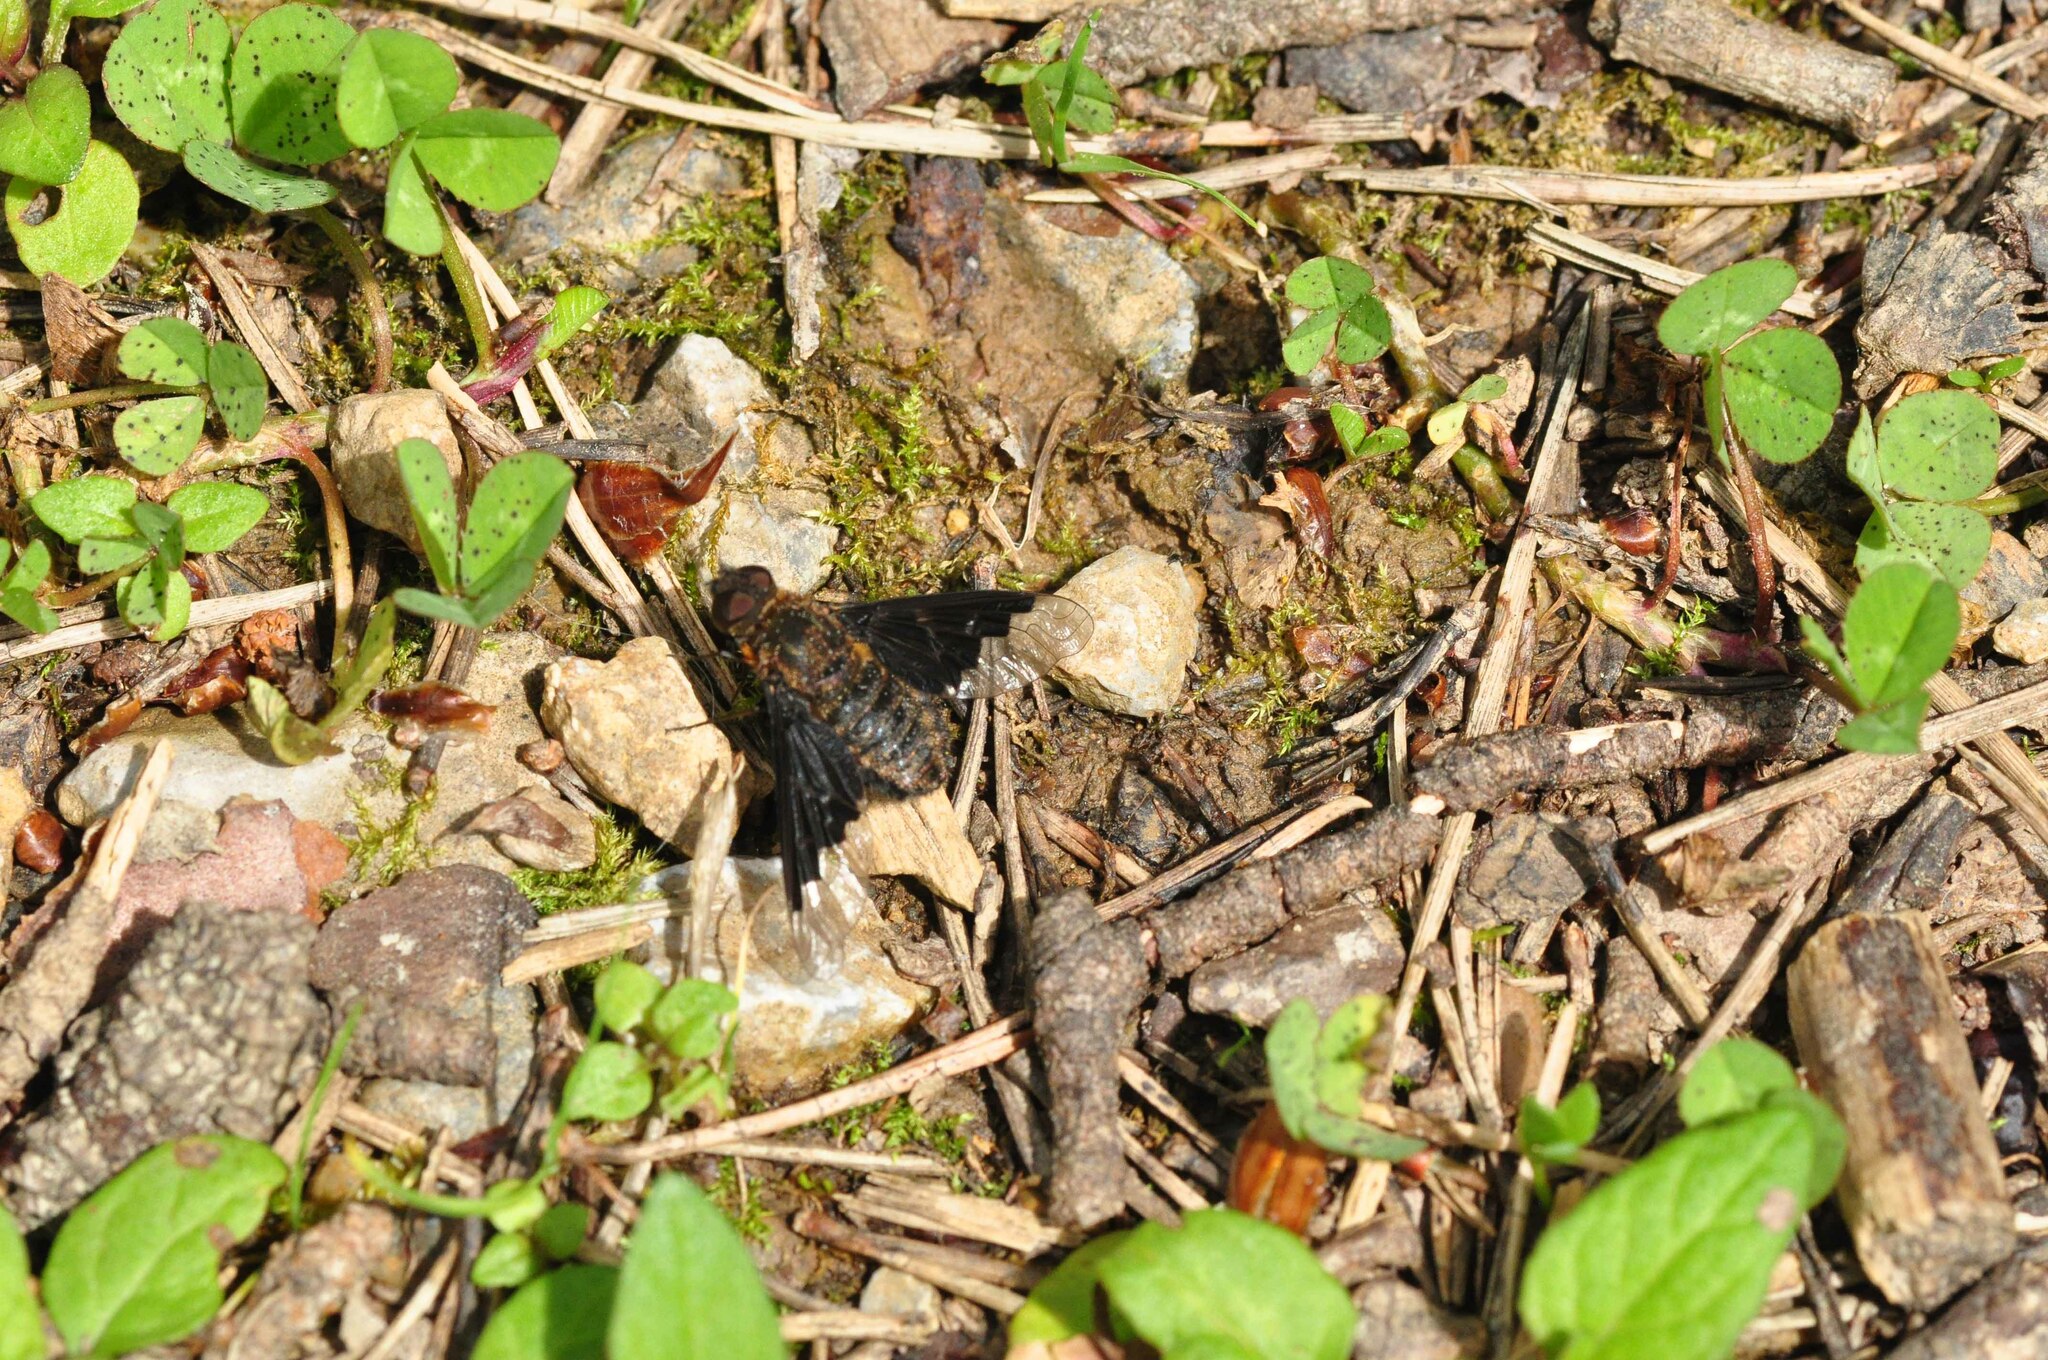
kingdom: Animalia
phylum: Arthropoda
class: Insecta
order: Diptera
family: Bombyliidae
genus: Hemipenthes
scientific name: Hemipenthes morio
